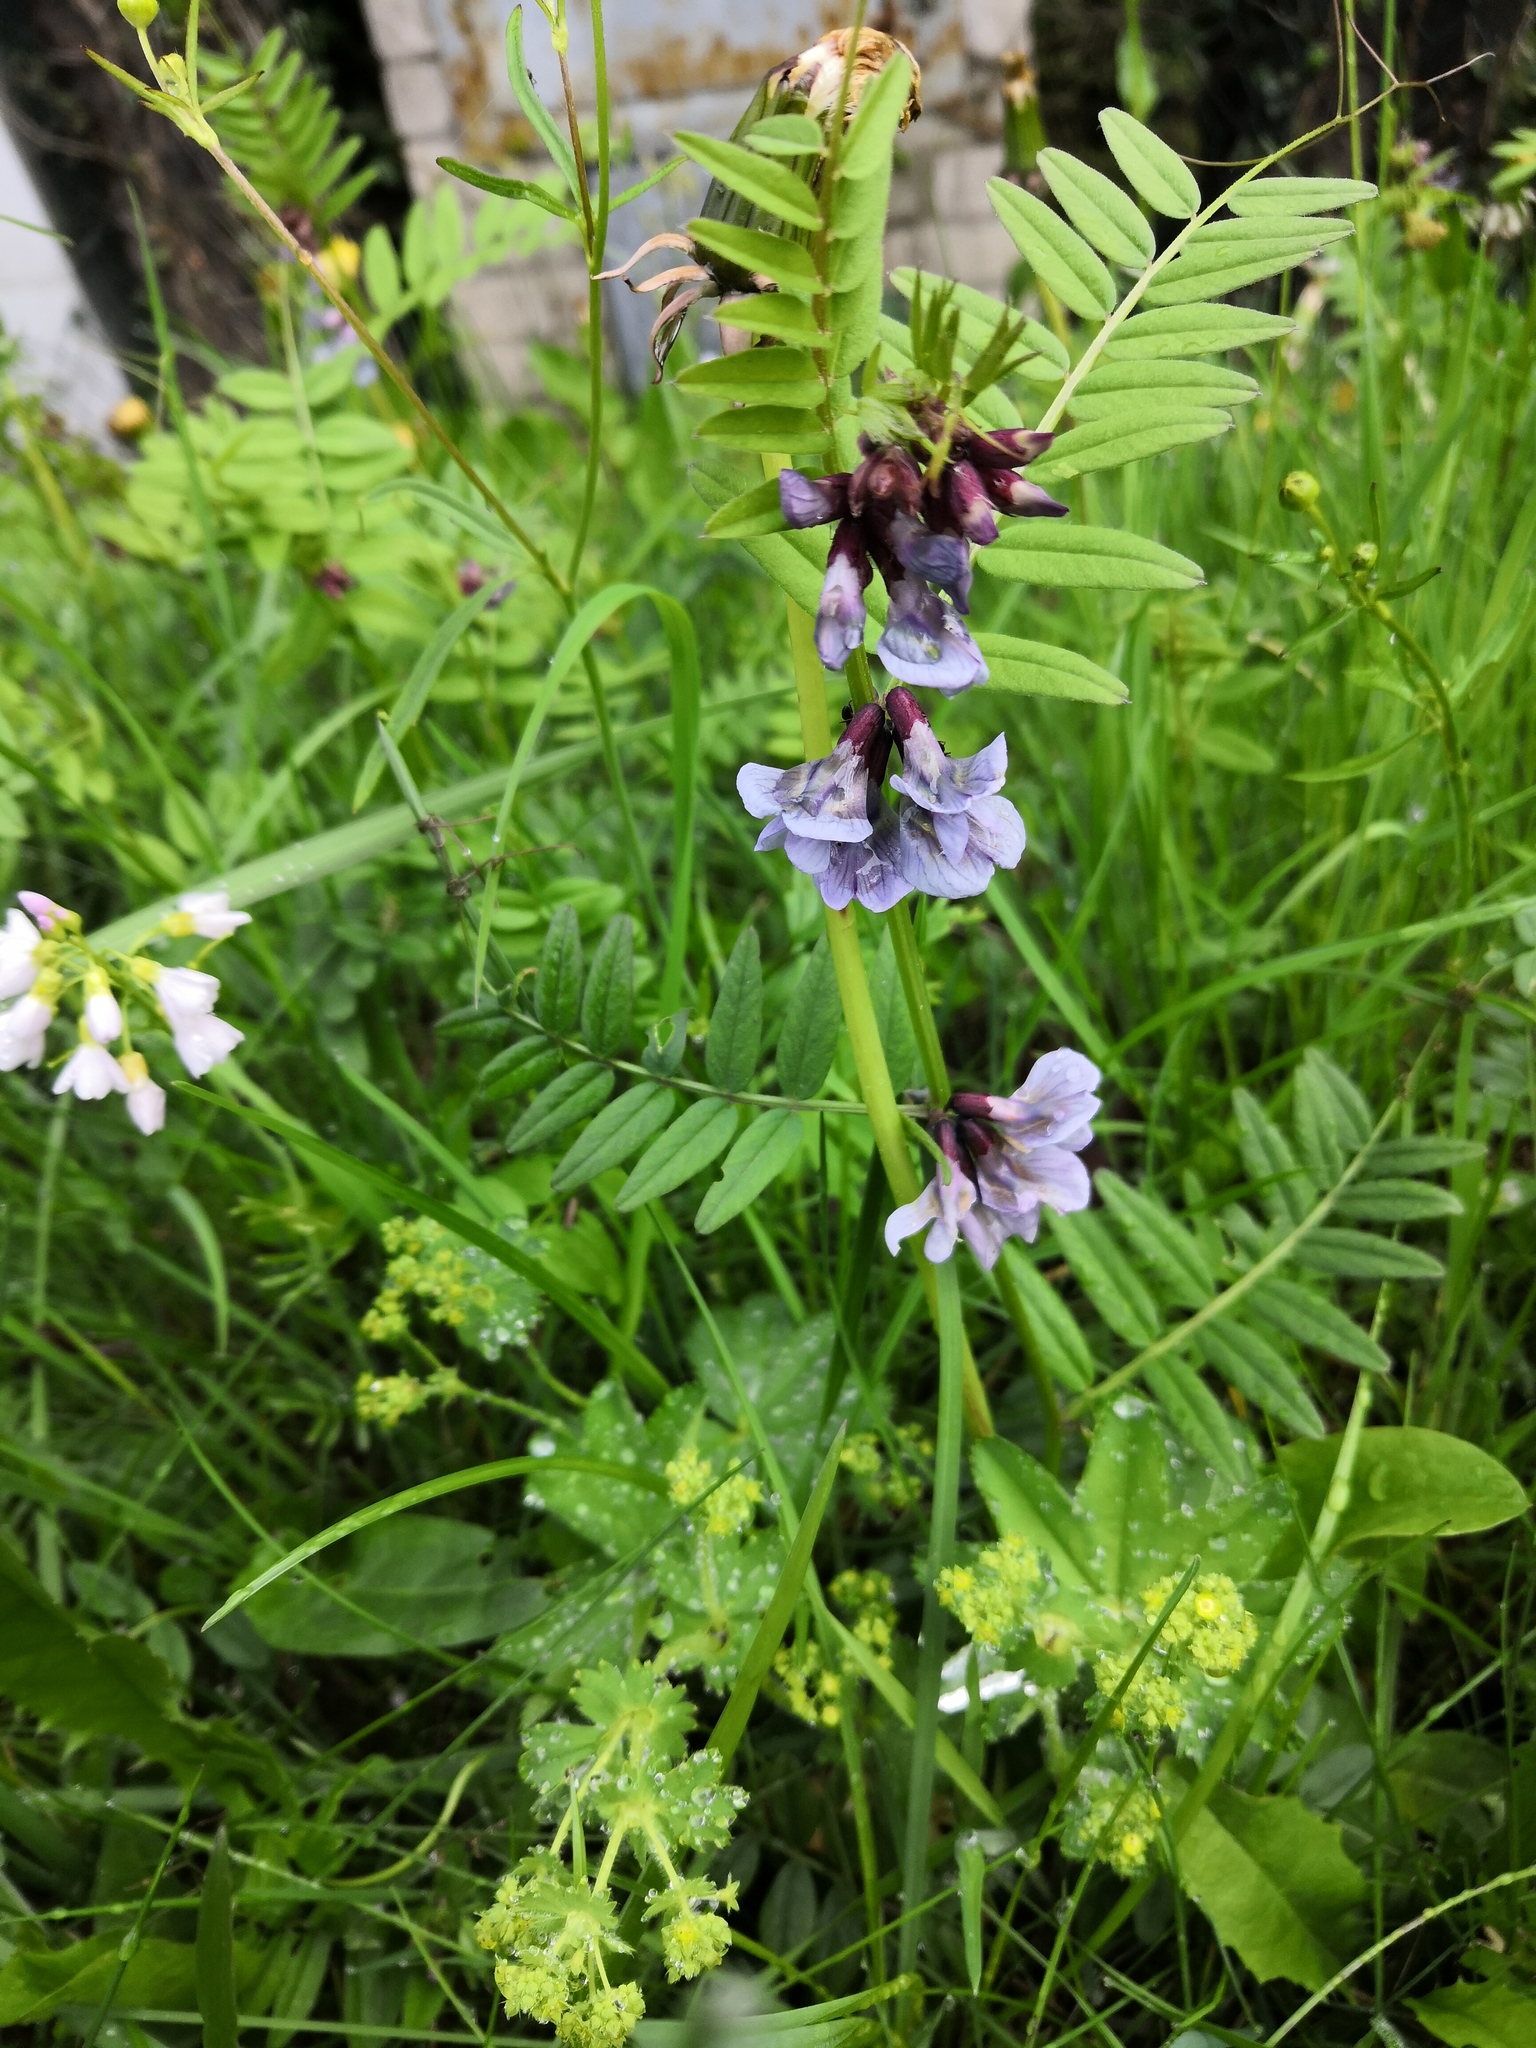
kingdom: Plantae
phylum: Tracheophyta
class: Magnoliopsida
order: Fabales
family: Fabaceae
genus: Vicia
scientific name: Vicia sepium
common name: Bush vetch
